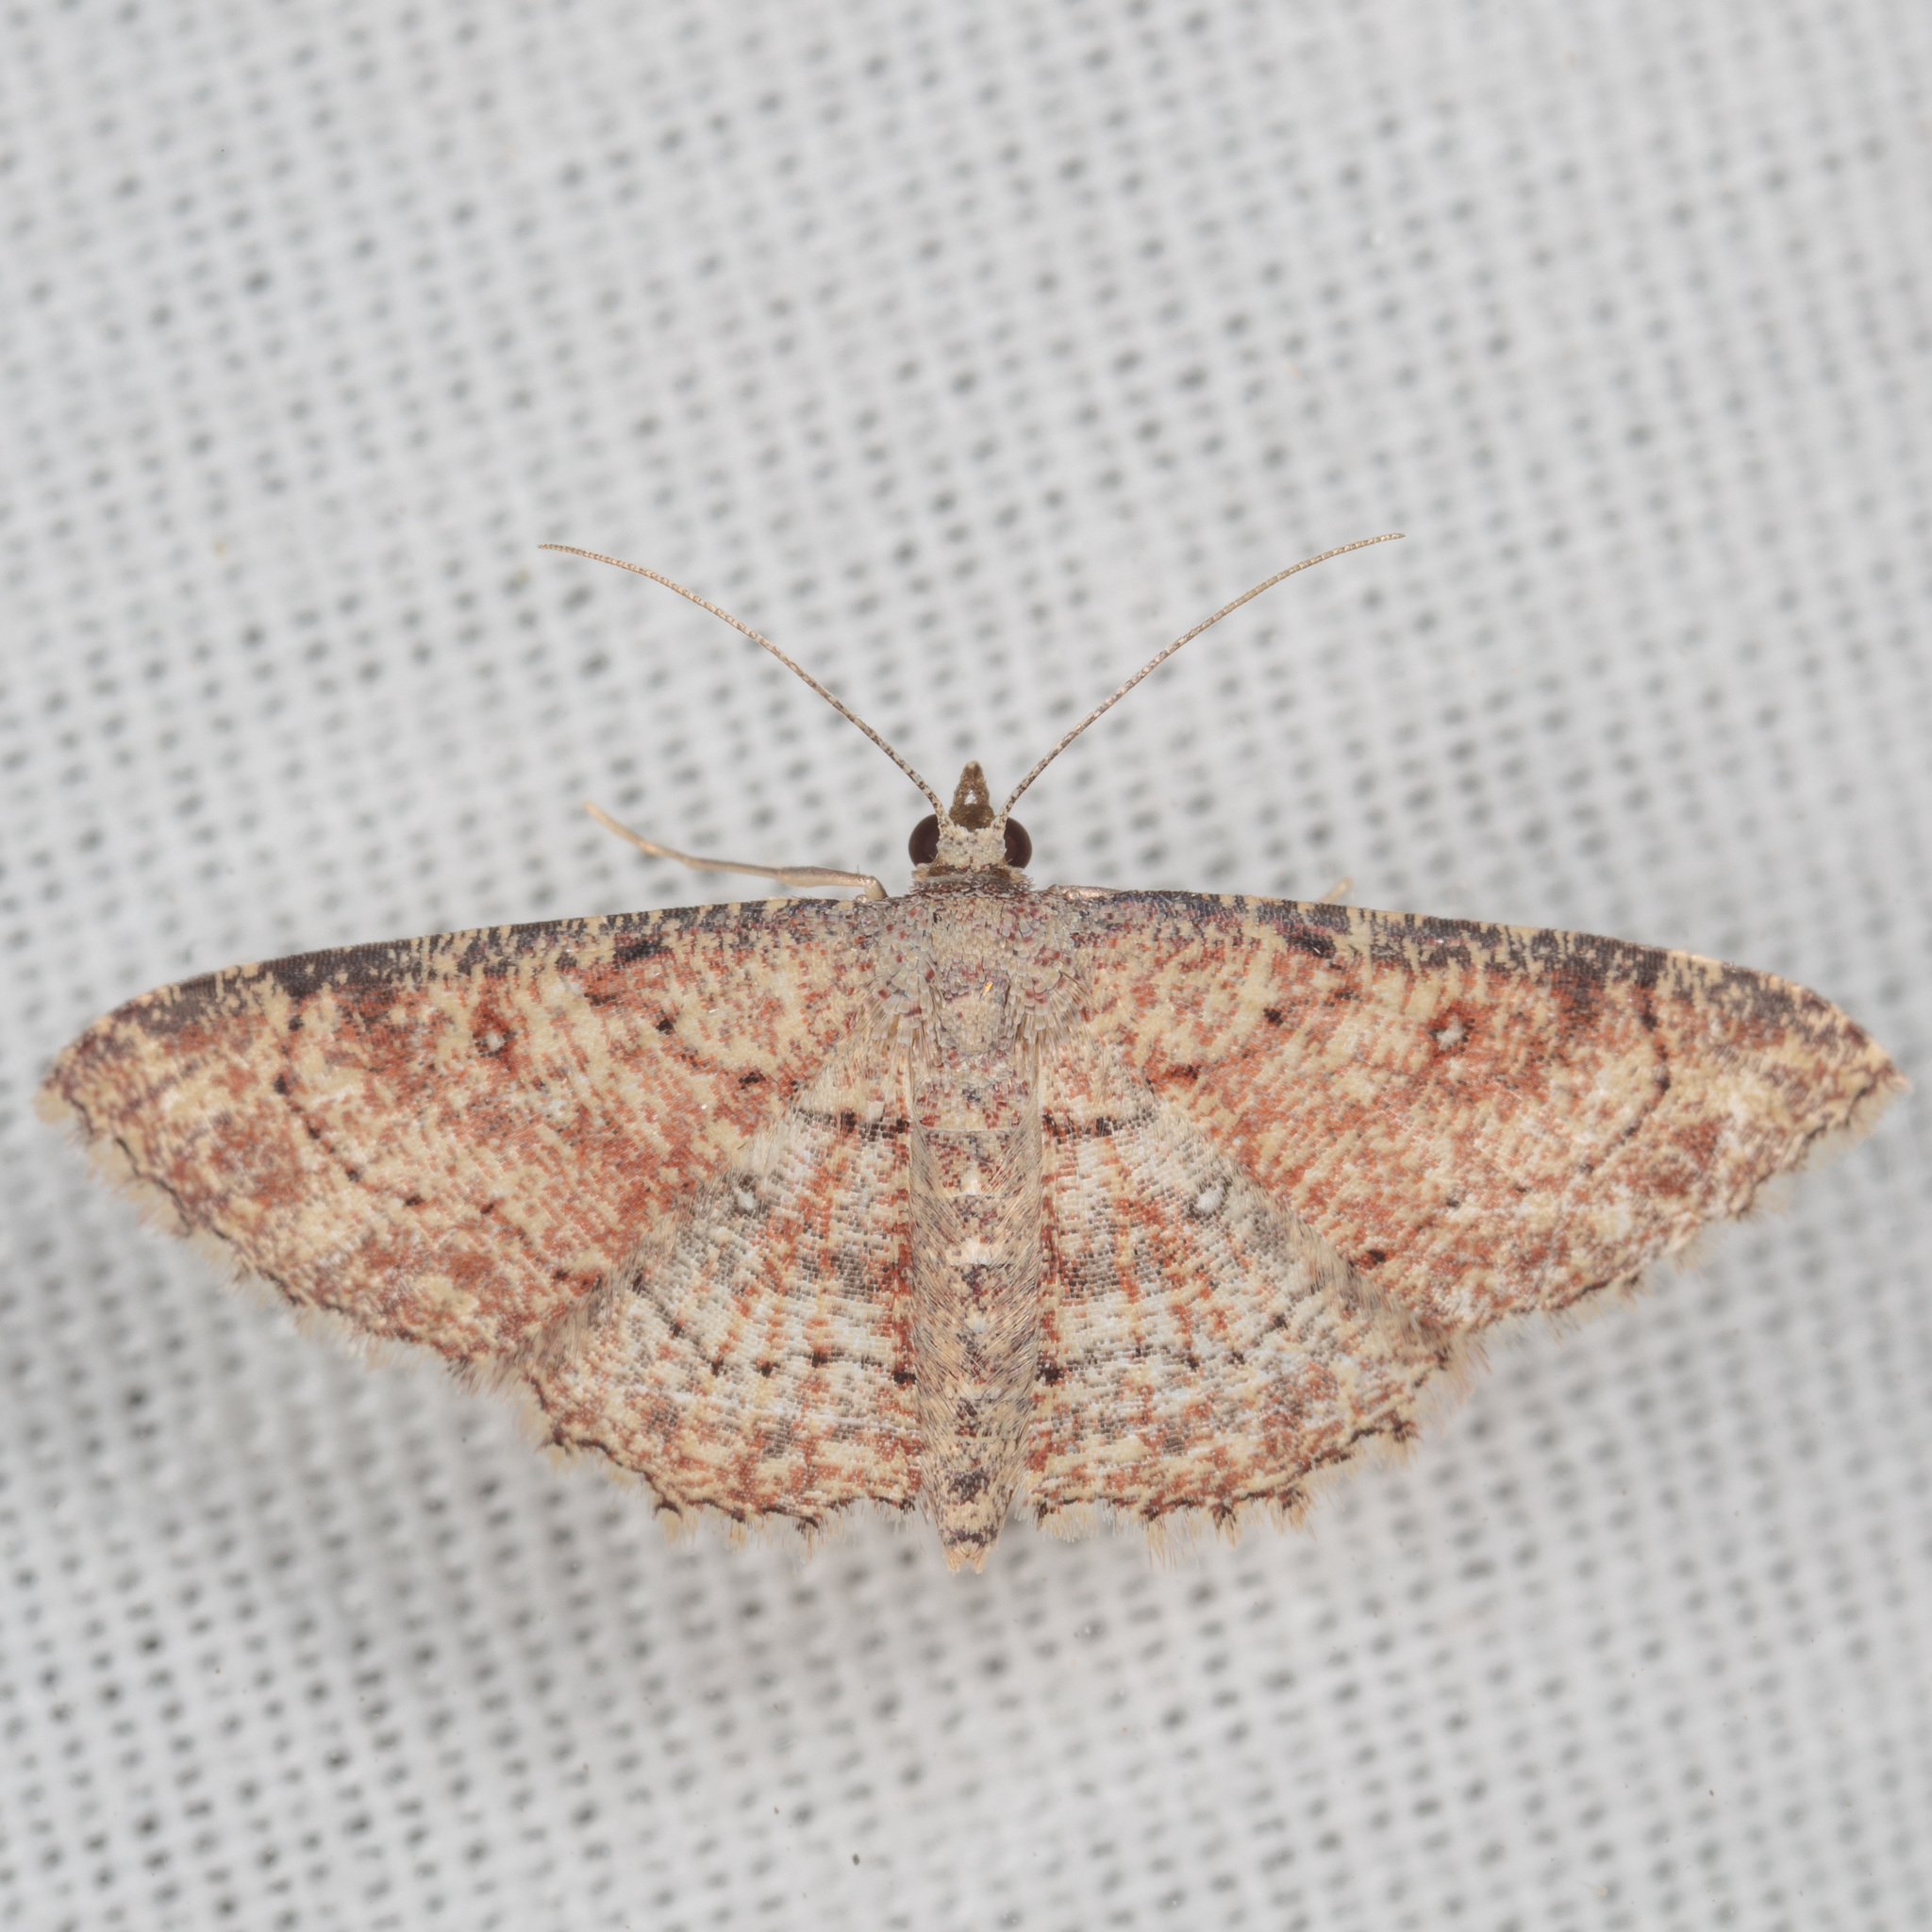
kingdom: Animalia
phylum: Arthropoda
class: Insecta
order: Lepidoptera
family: Geometridae
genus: Cyclophora
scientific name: Cyclophora nanaria
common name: Cankerworm
